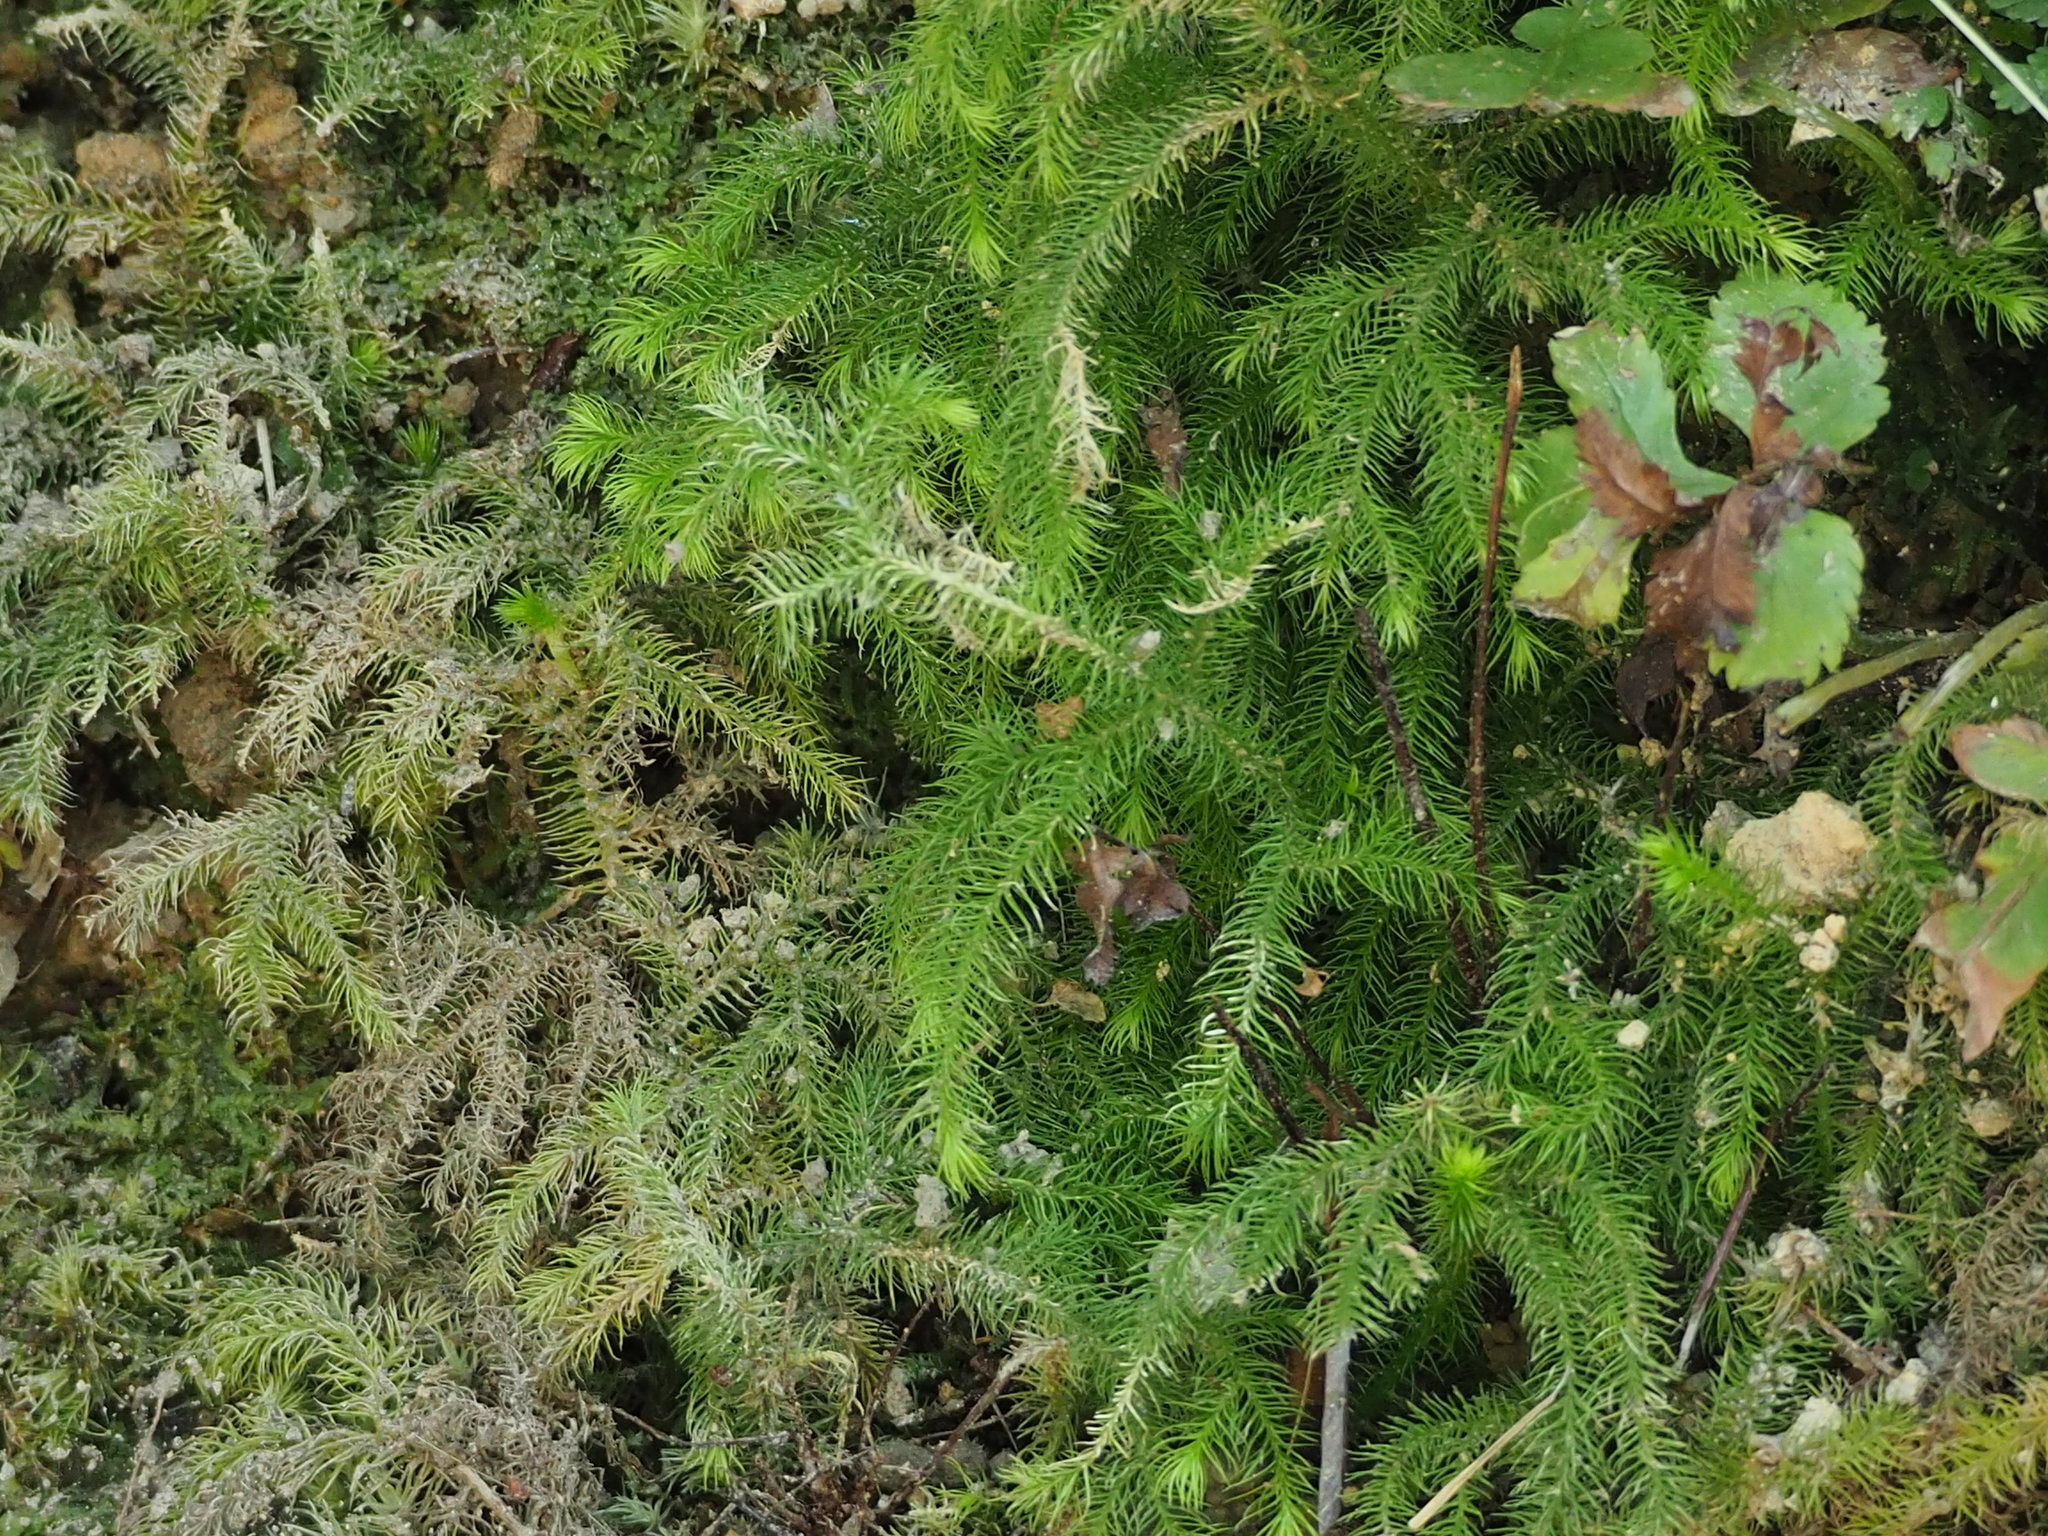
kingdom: Plantae
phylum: Tracheophyta
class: Lycopodiopsida
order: Lycopodiales
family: Lycopodiaceae
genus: Palhinhaea
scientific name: Palhinhaea cernua
